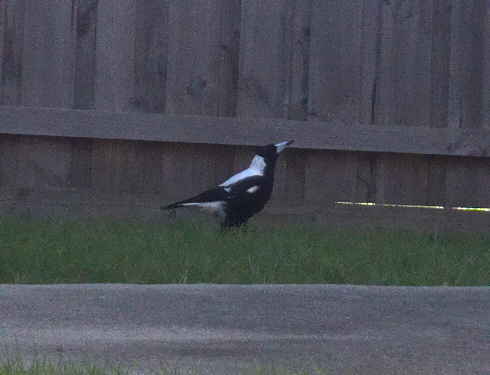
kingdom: Animalia
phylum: Chordata
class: Aves
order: Passeriformes
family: Cracticidae
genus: Gymnorhina
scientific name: Gymnorhina tibicen
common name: Australian magpie
